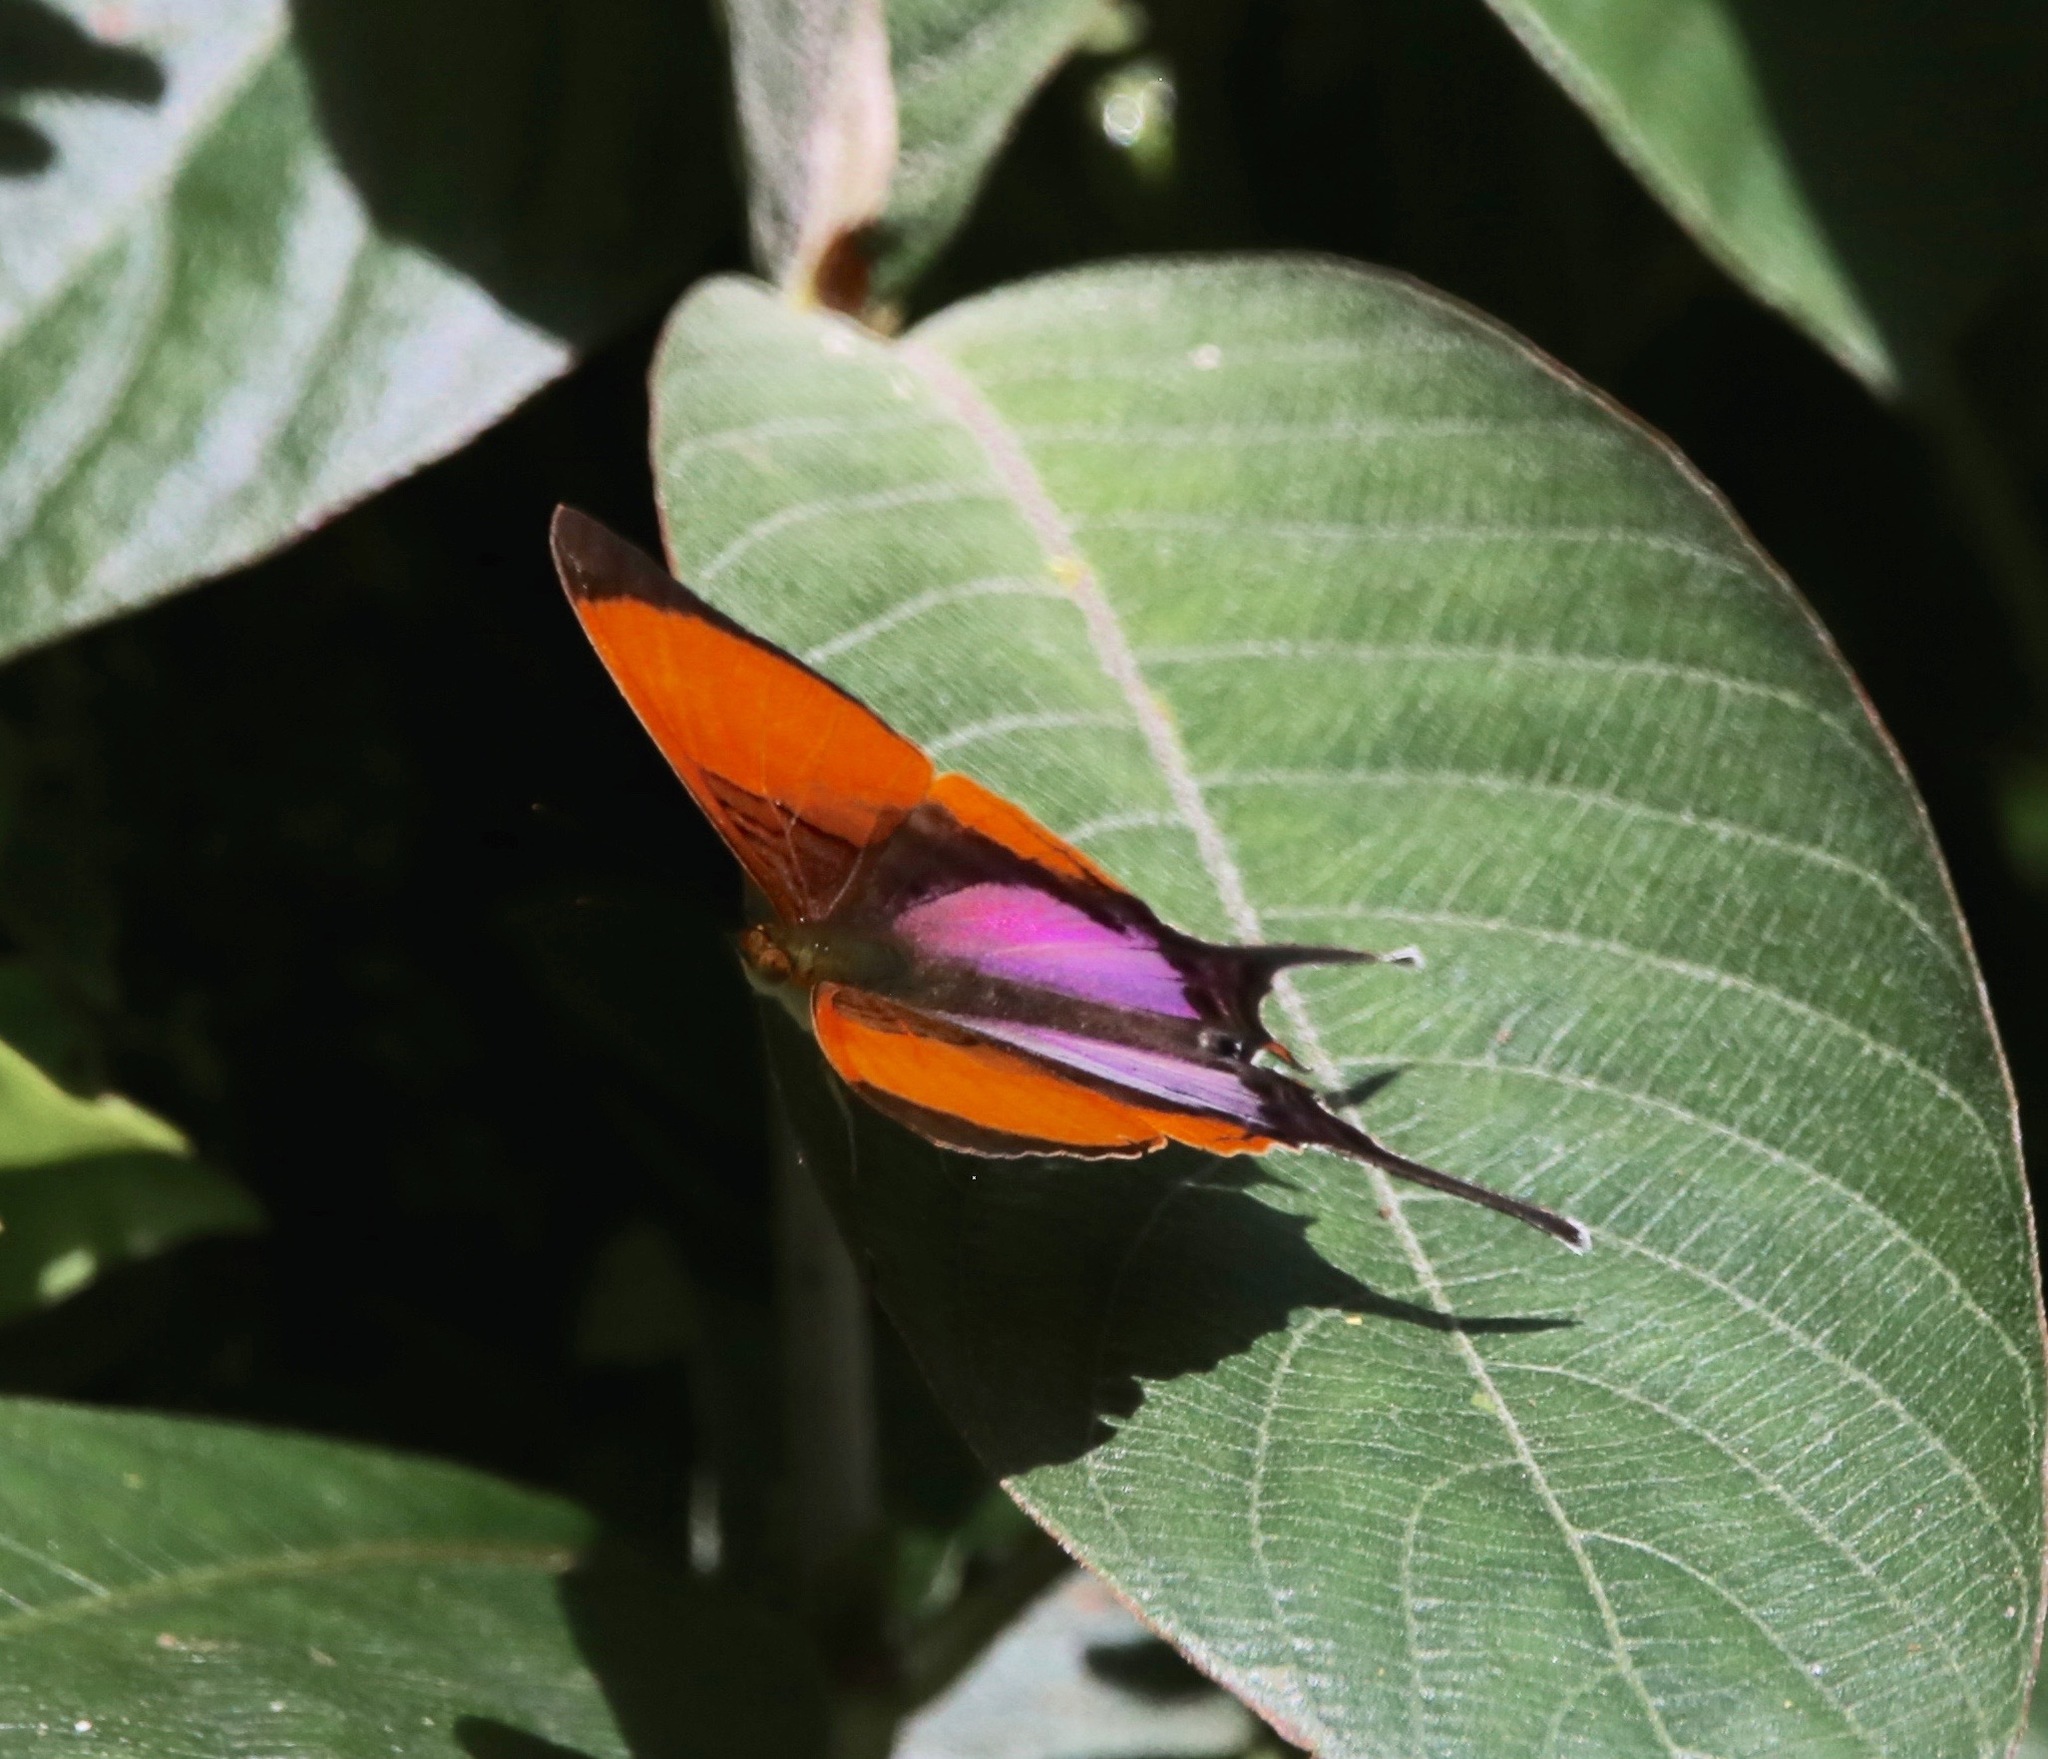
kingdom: Animalia
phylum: Arthropoda
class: Insecta
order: Lepidoptera
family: Nymphalidae
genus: Marpesia
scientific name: Marpesia marcella
